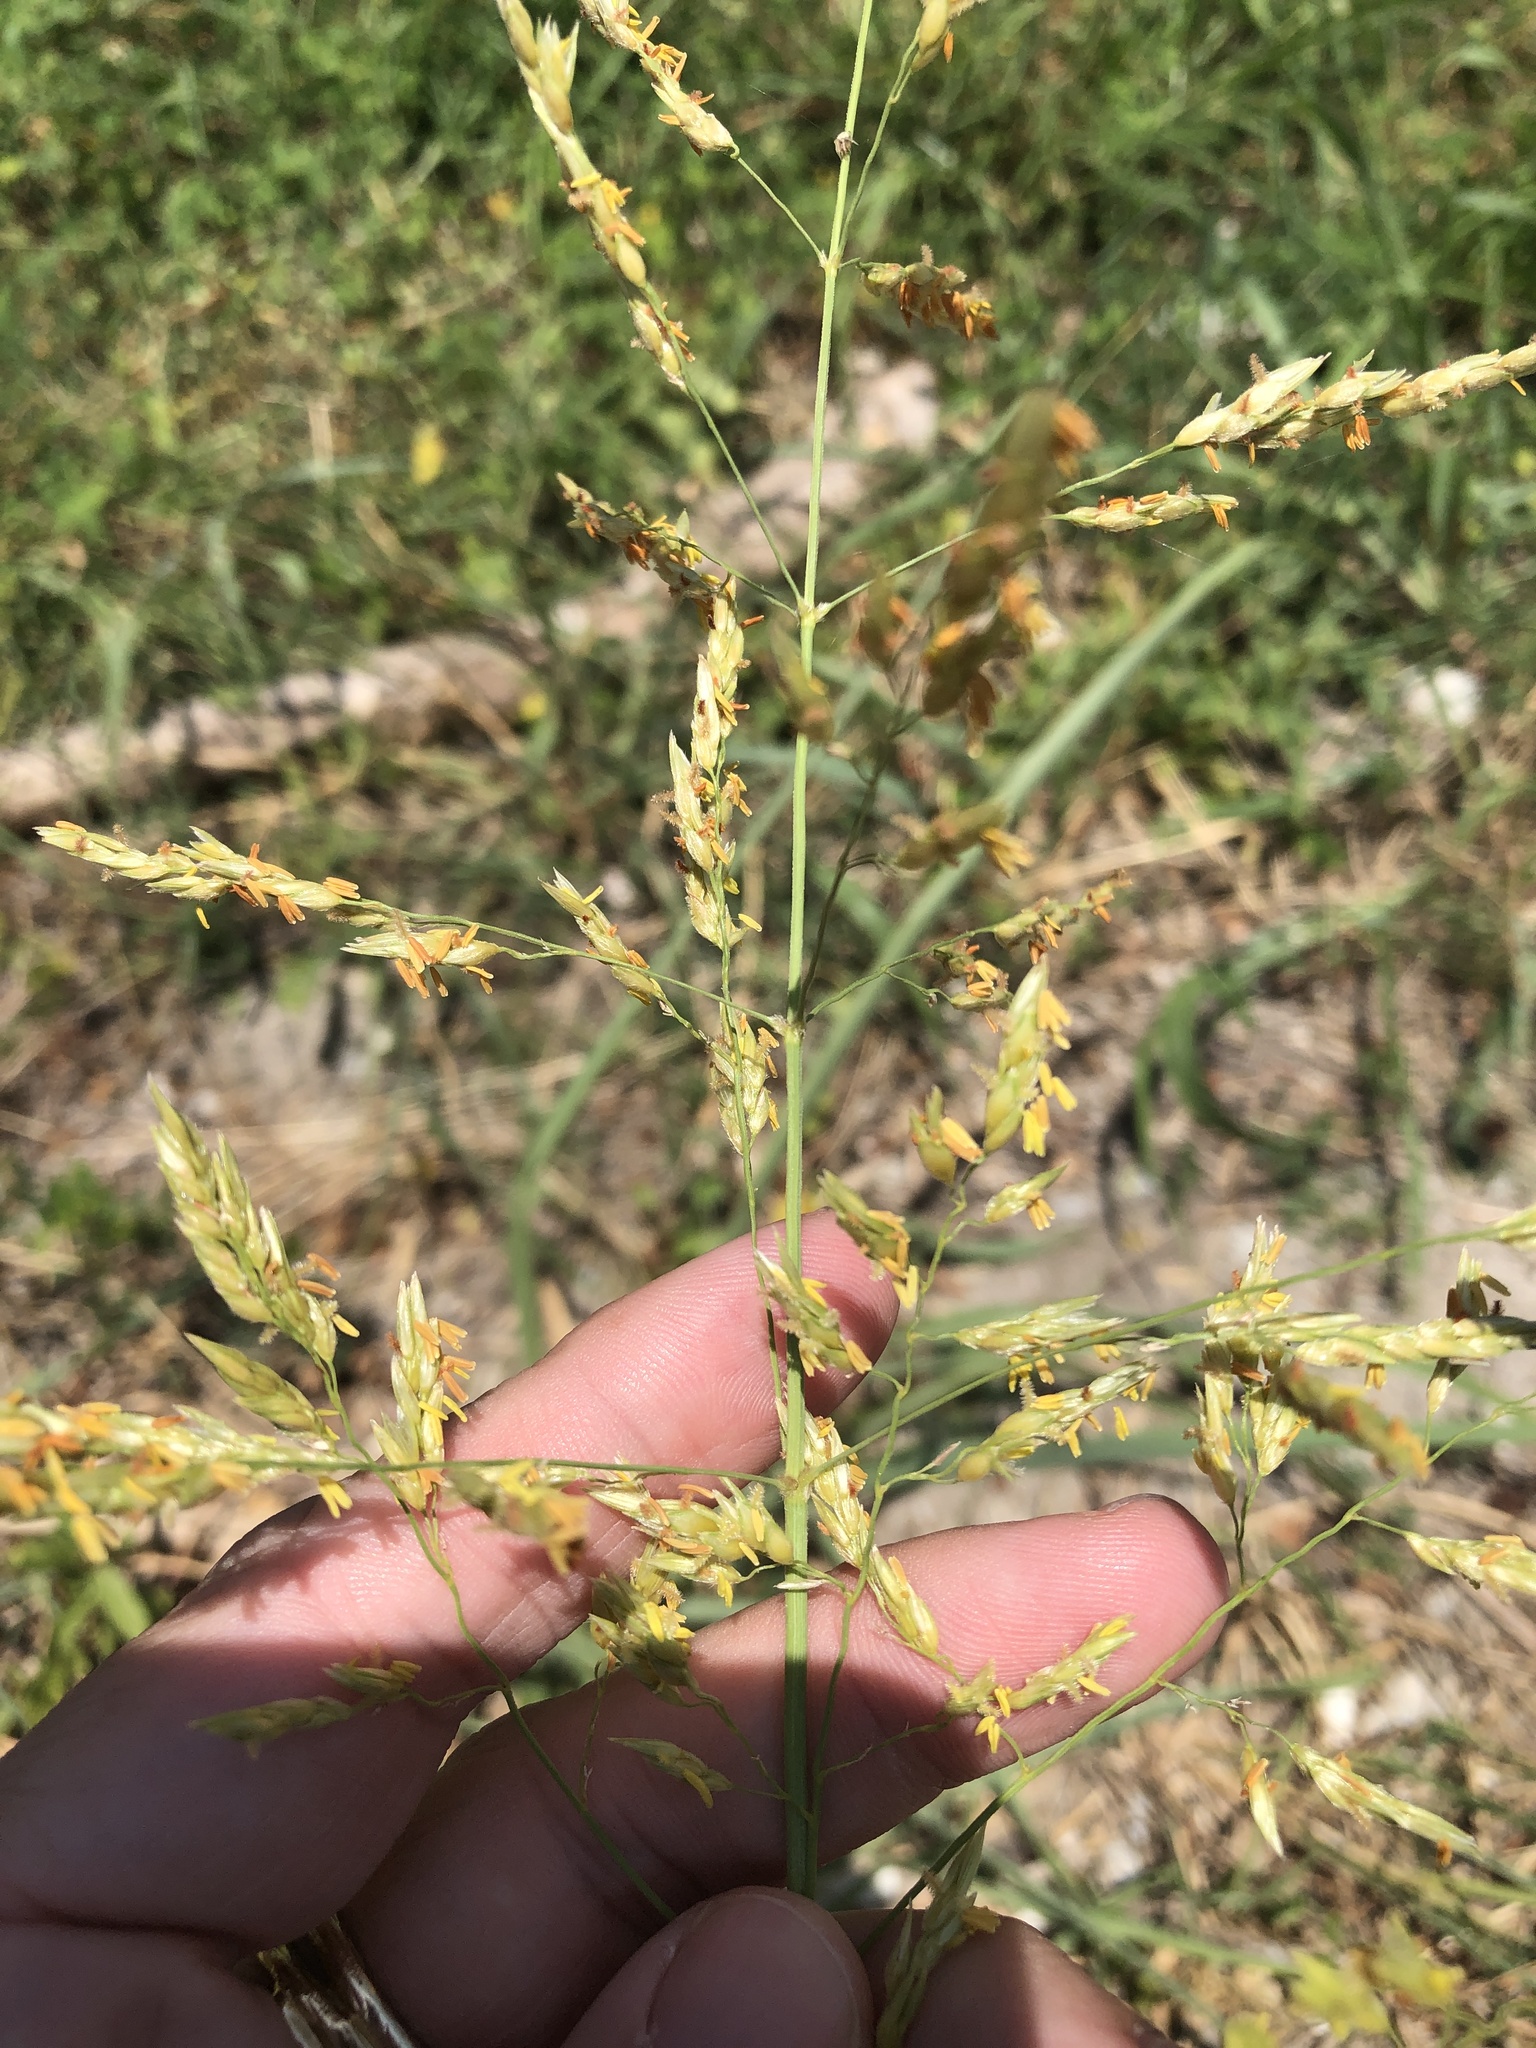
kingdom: Plantae
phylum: Tracheophyta
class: Liliopsida
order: Poales
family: Poaceae
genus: Sorghum
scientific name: Sorghum halepense
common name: Johnson-grass
